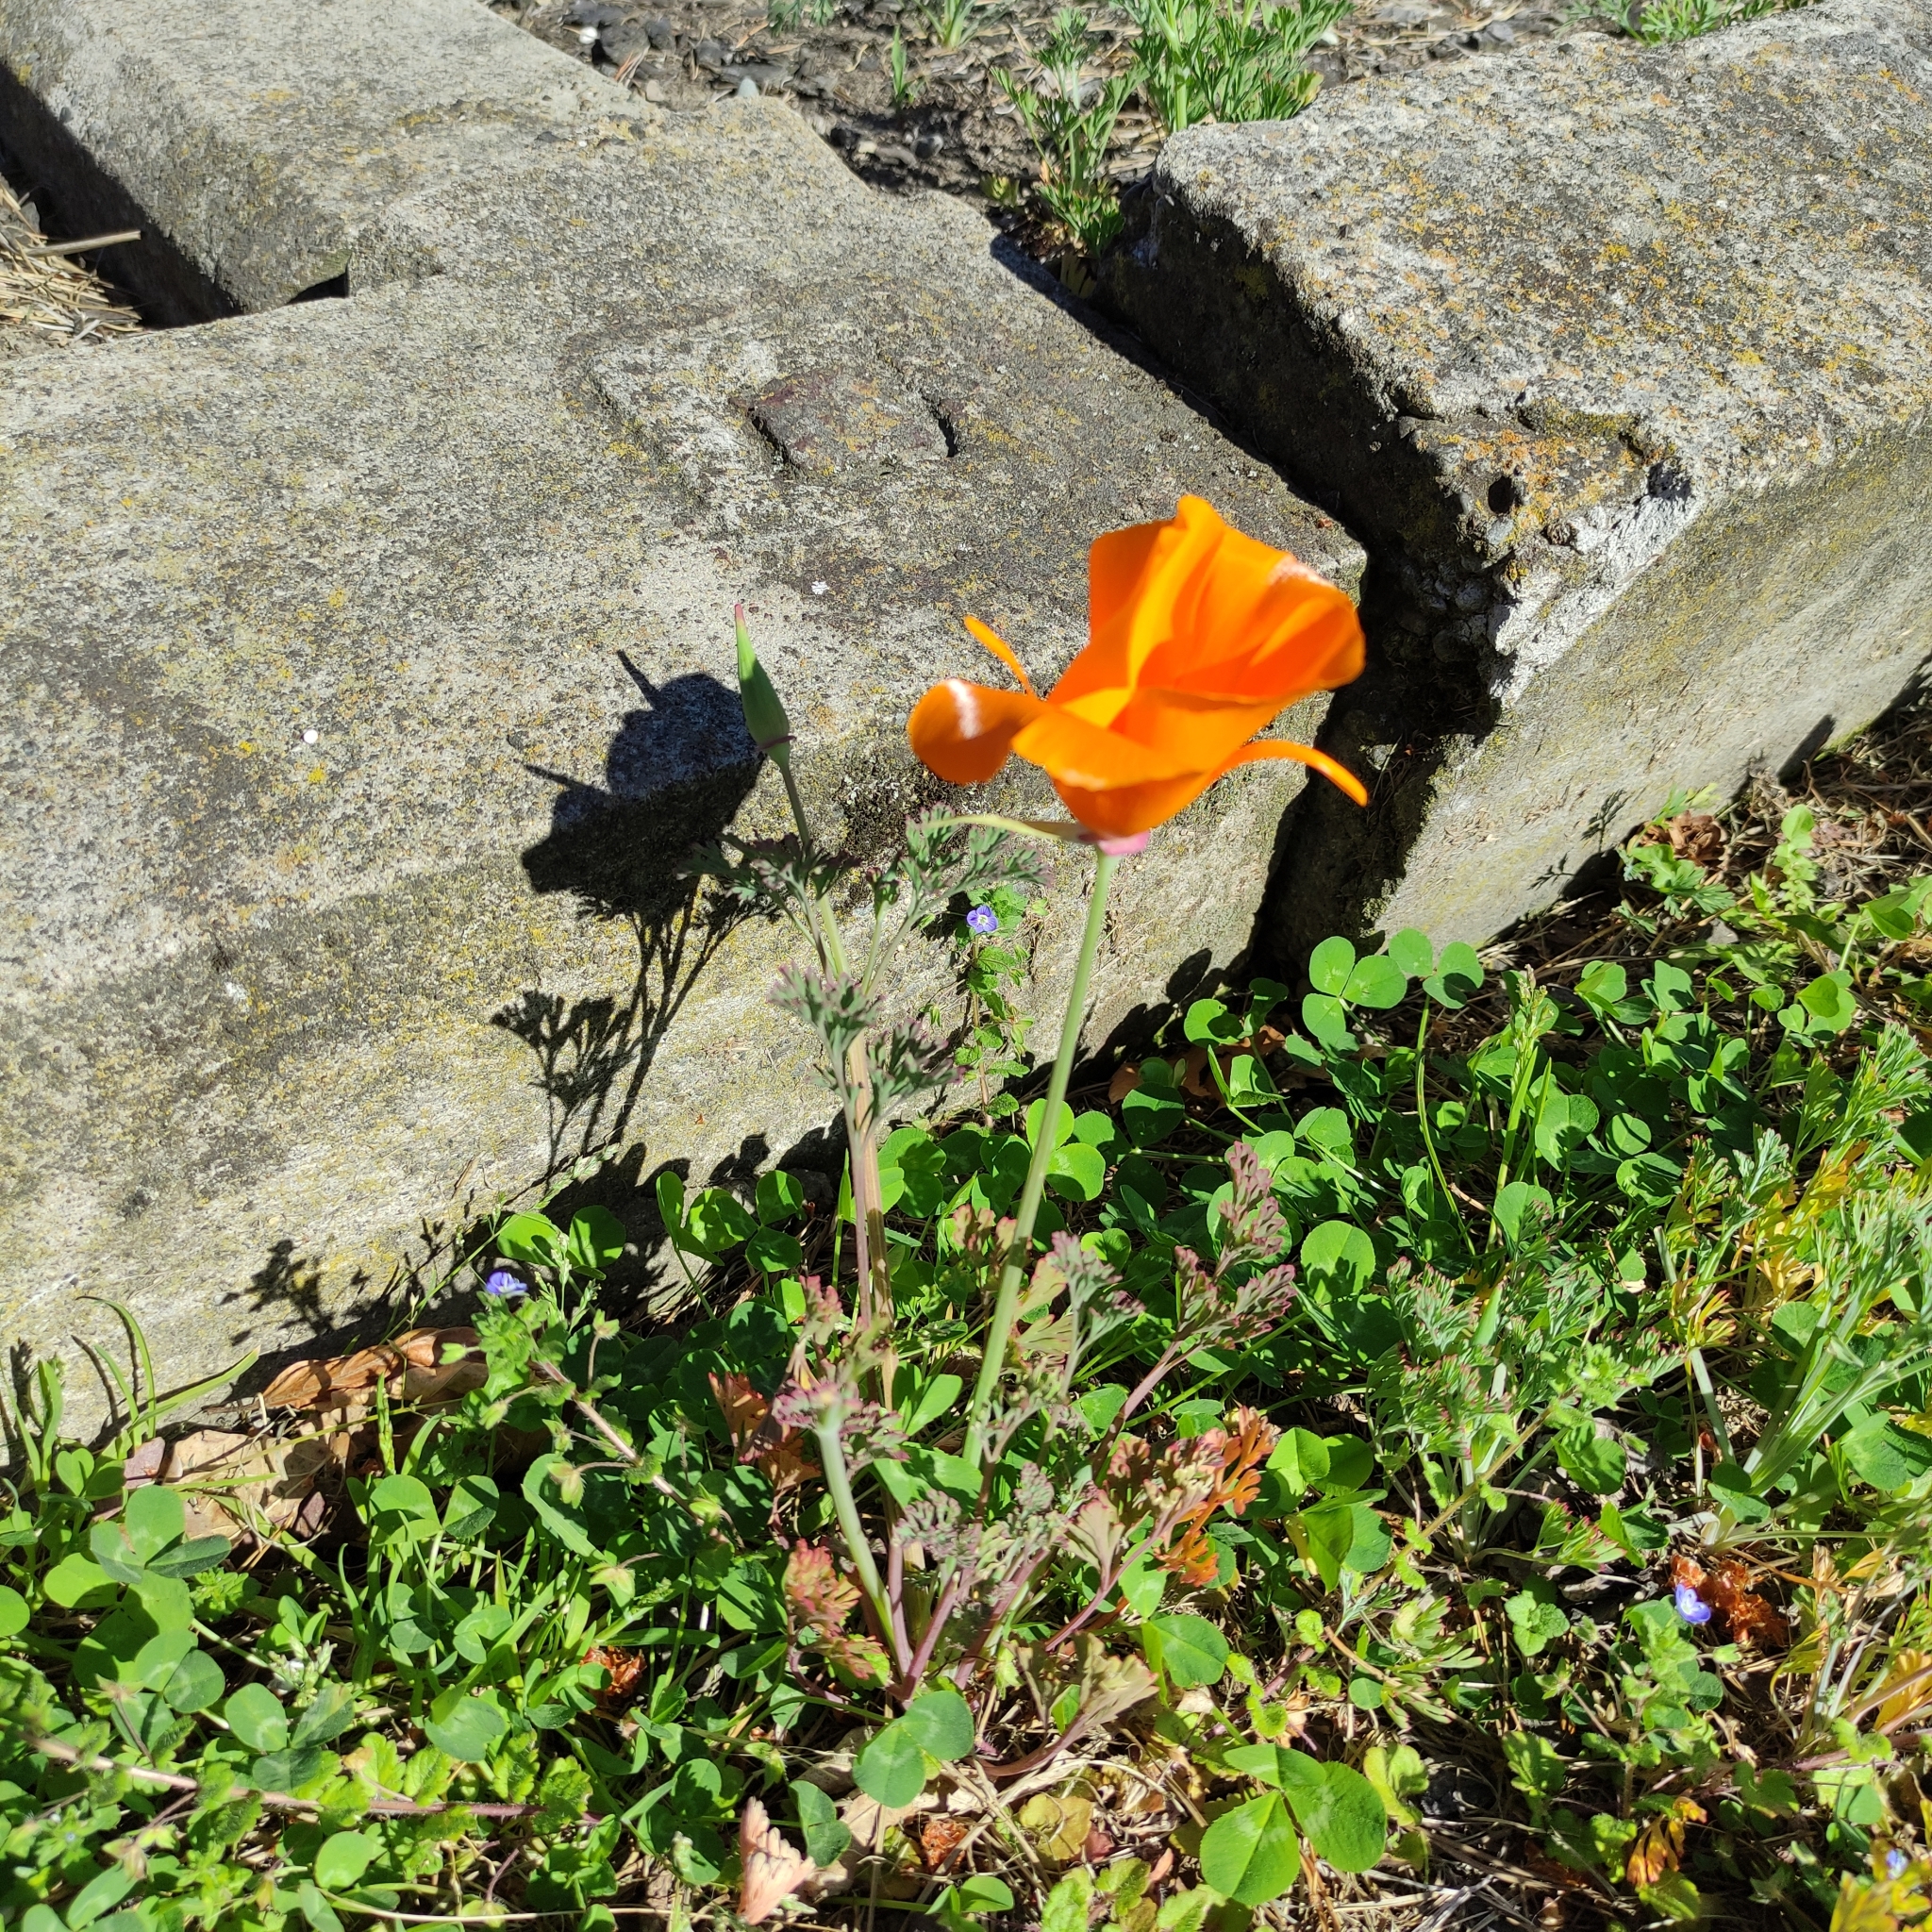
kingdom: Plantae
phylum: Tracheophyta
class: Magnoliopsida
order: Ranunculales
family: Papaveraceae
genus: Eschscholzia
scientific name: Eschscholzia californica
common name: California poppy
